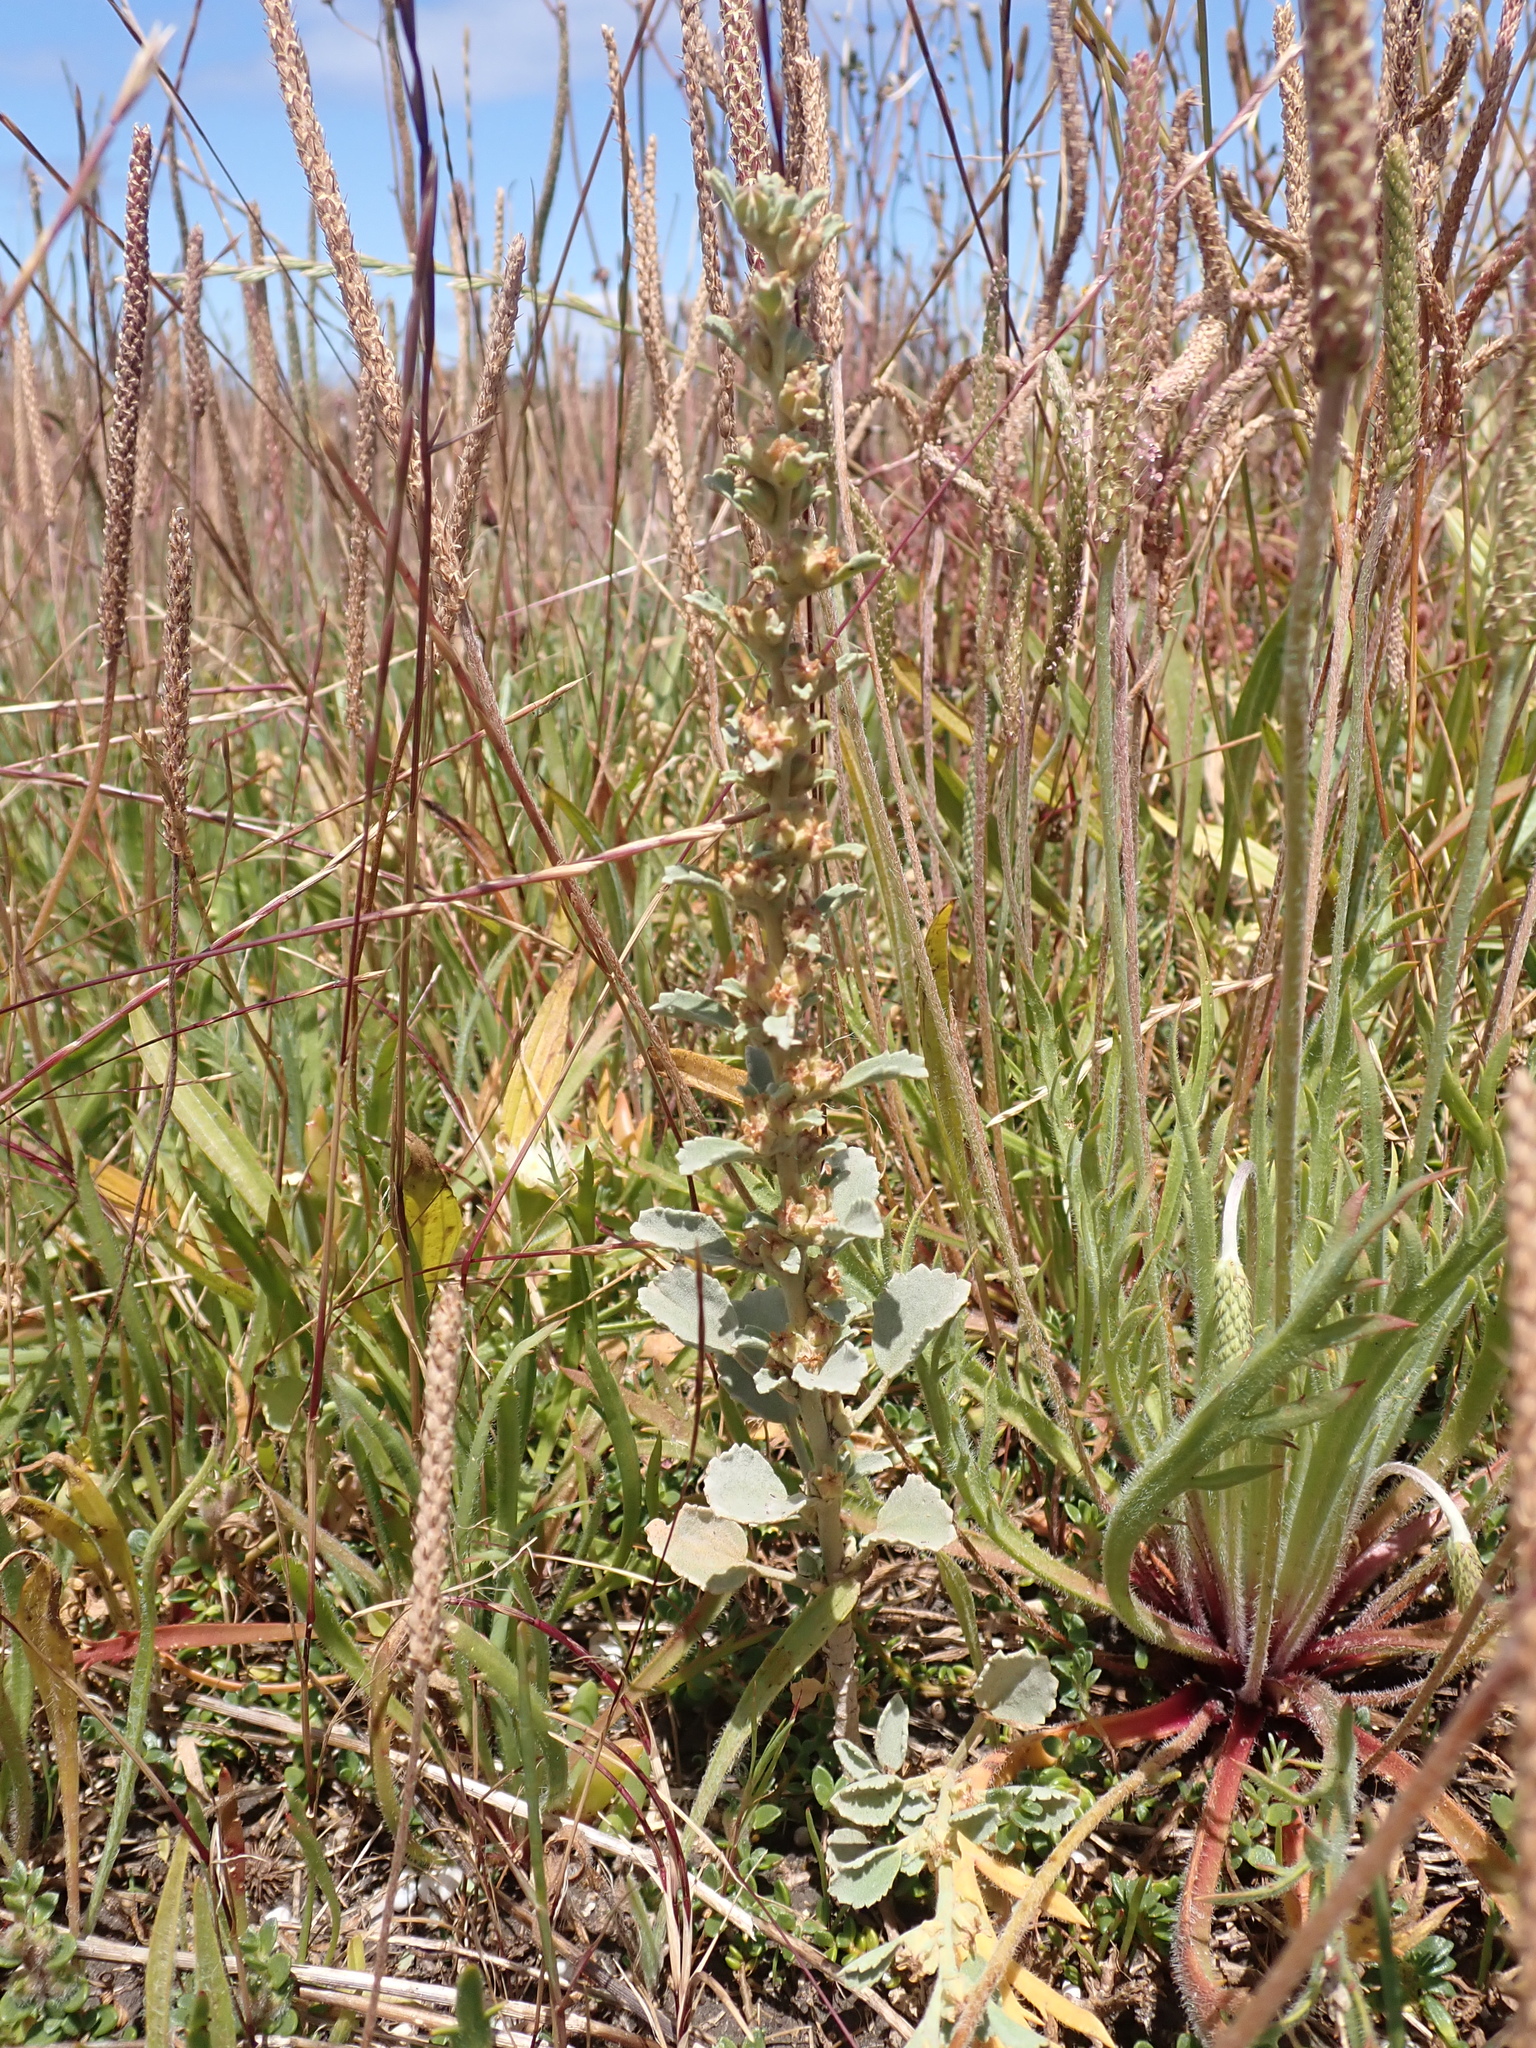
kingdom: Plantae
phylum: Tracheophyta
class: Magnoliopsida
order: Malvales
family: Malvaceae
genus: Lawrencia
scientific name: Lawrencia glomerata
